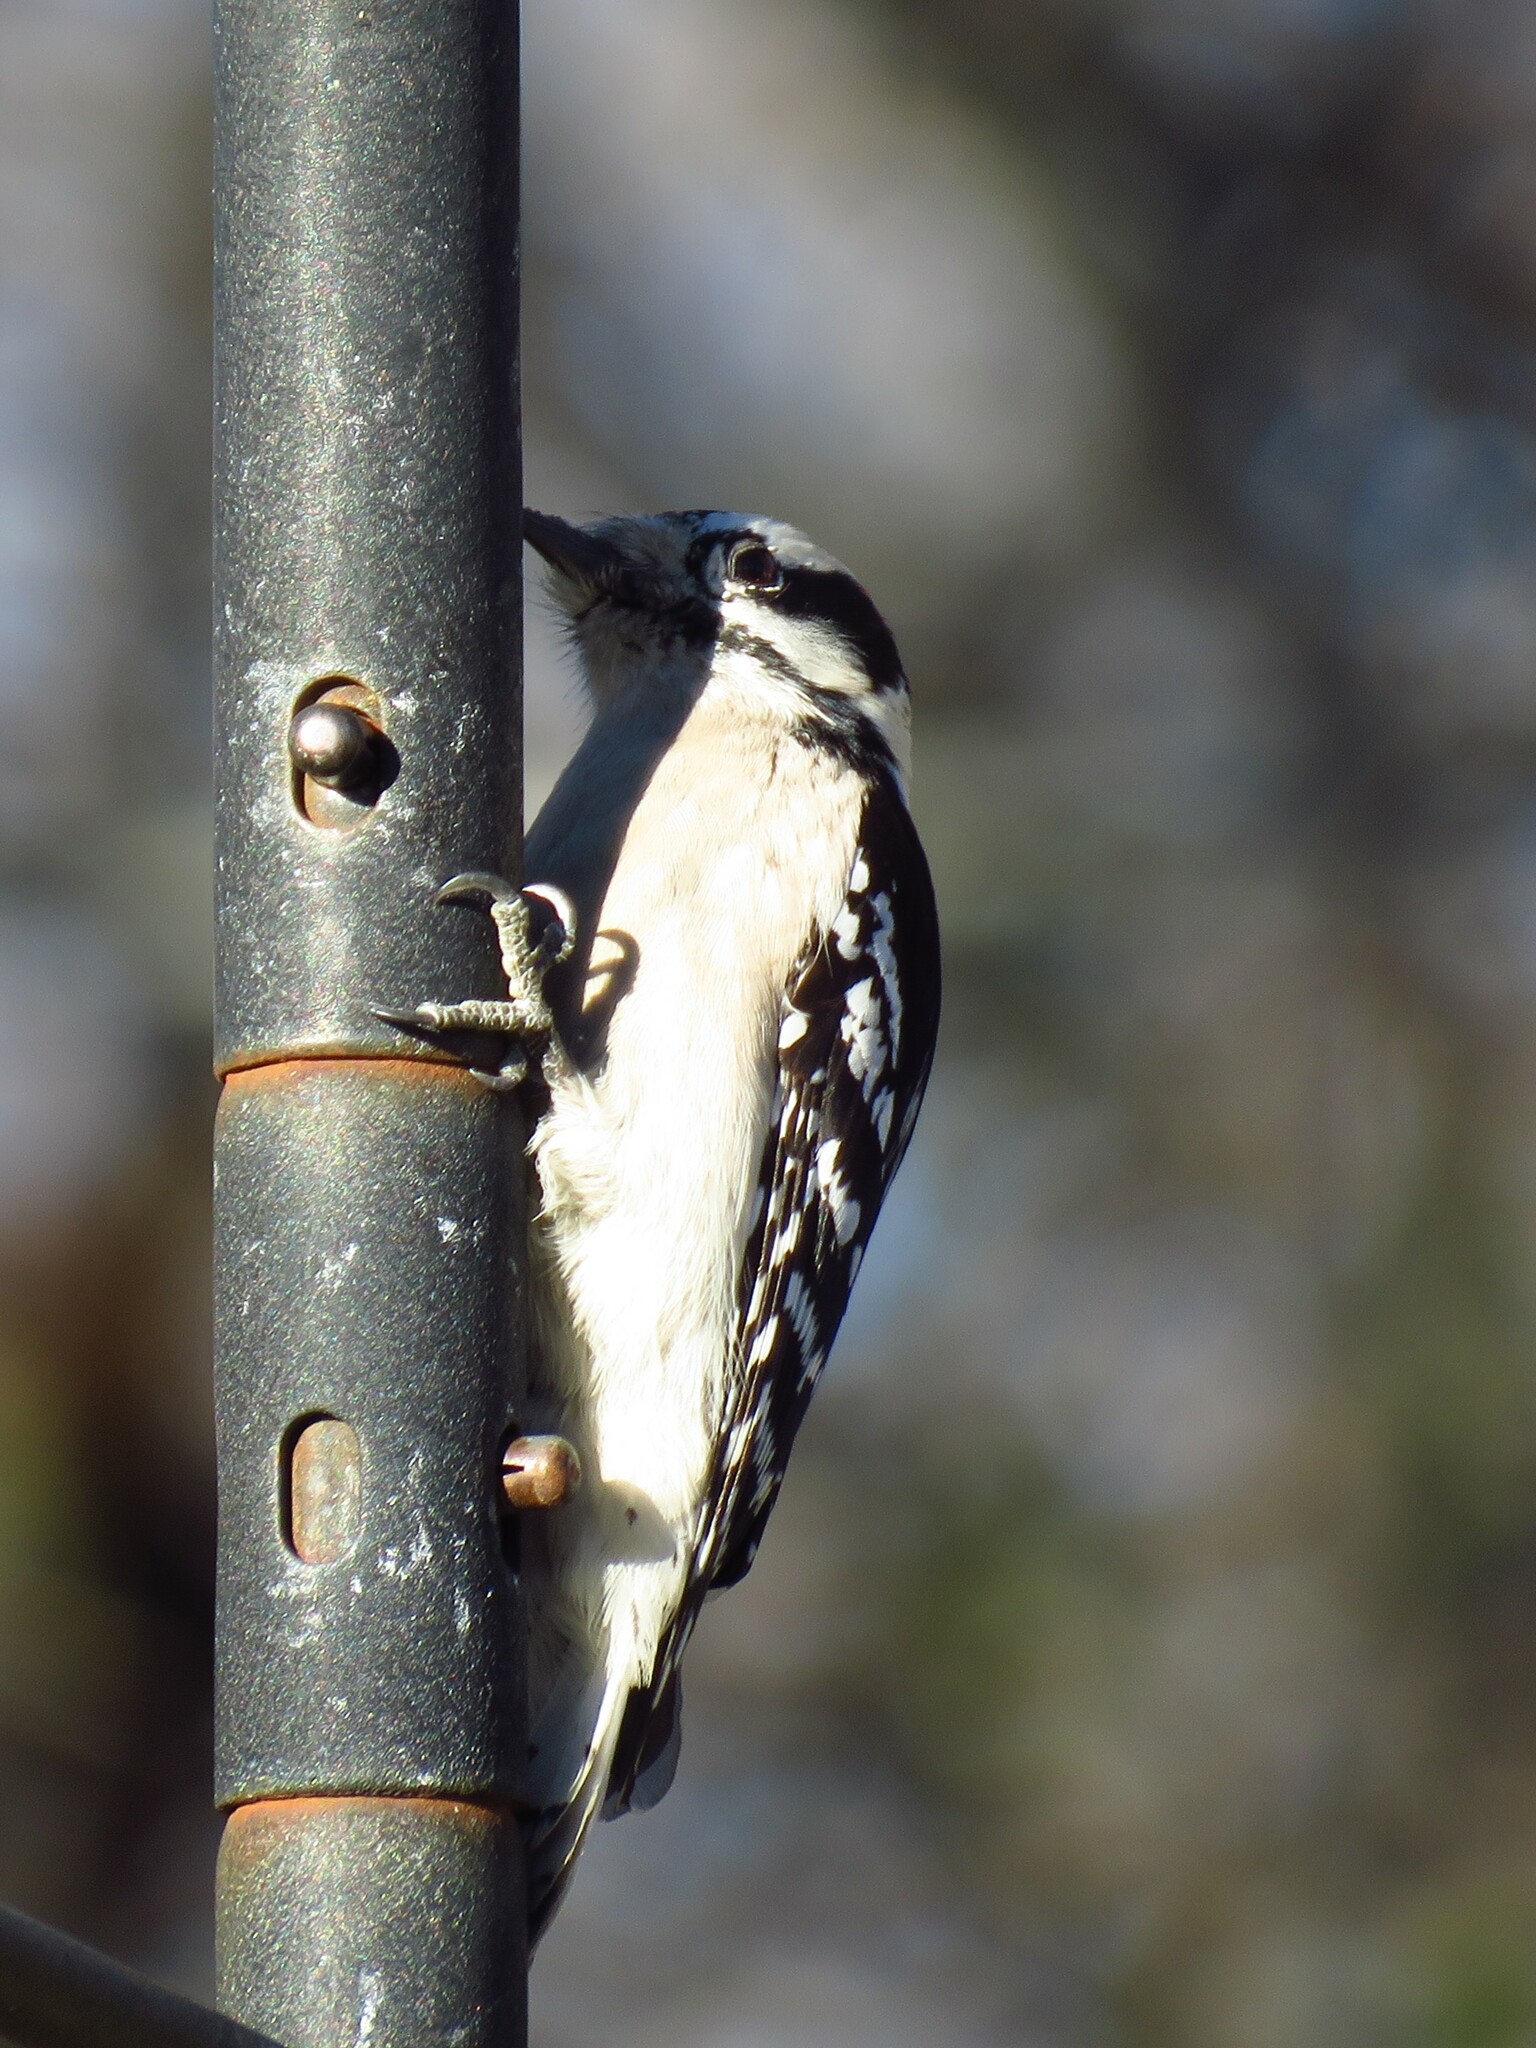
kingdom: Animalia
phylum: Chordata
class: Aves
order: Piciformes
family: Picidae
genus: Dryobates
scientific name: Dryobates pubescens
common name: Downy woodpecker
